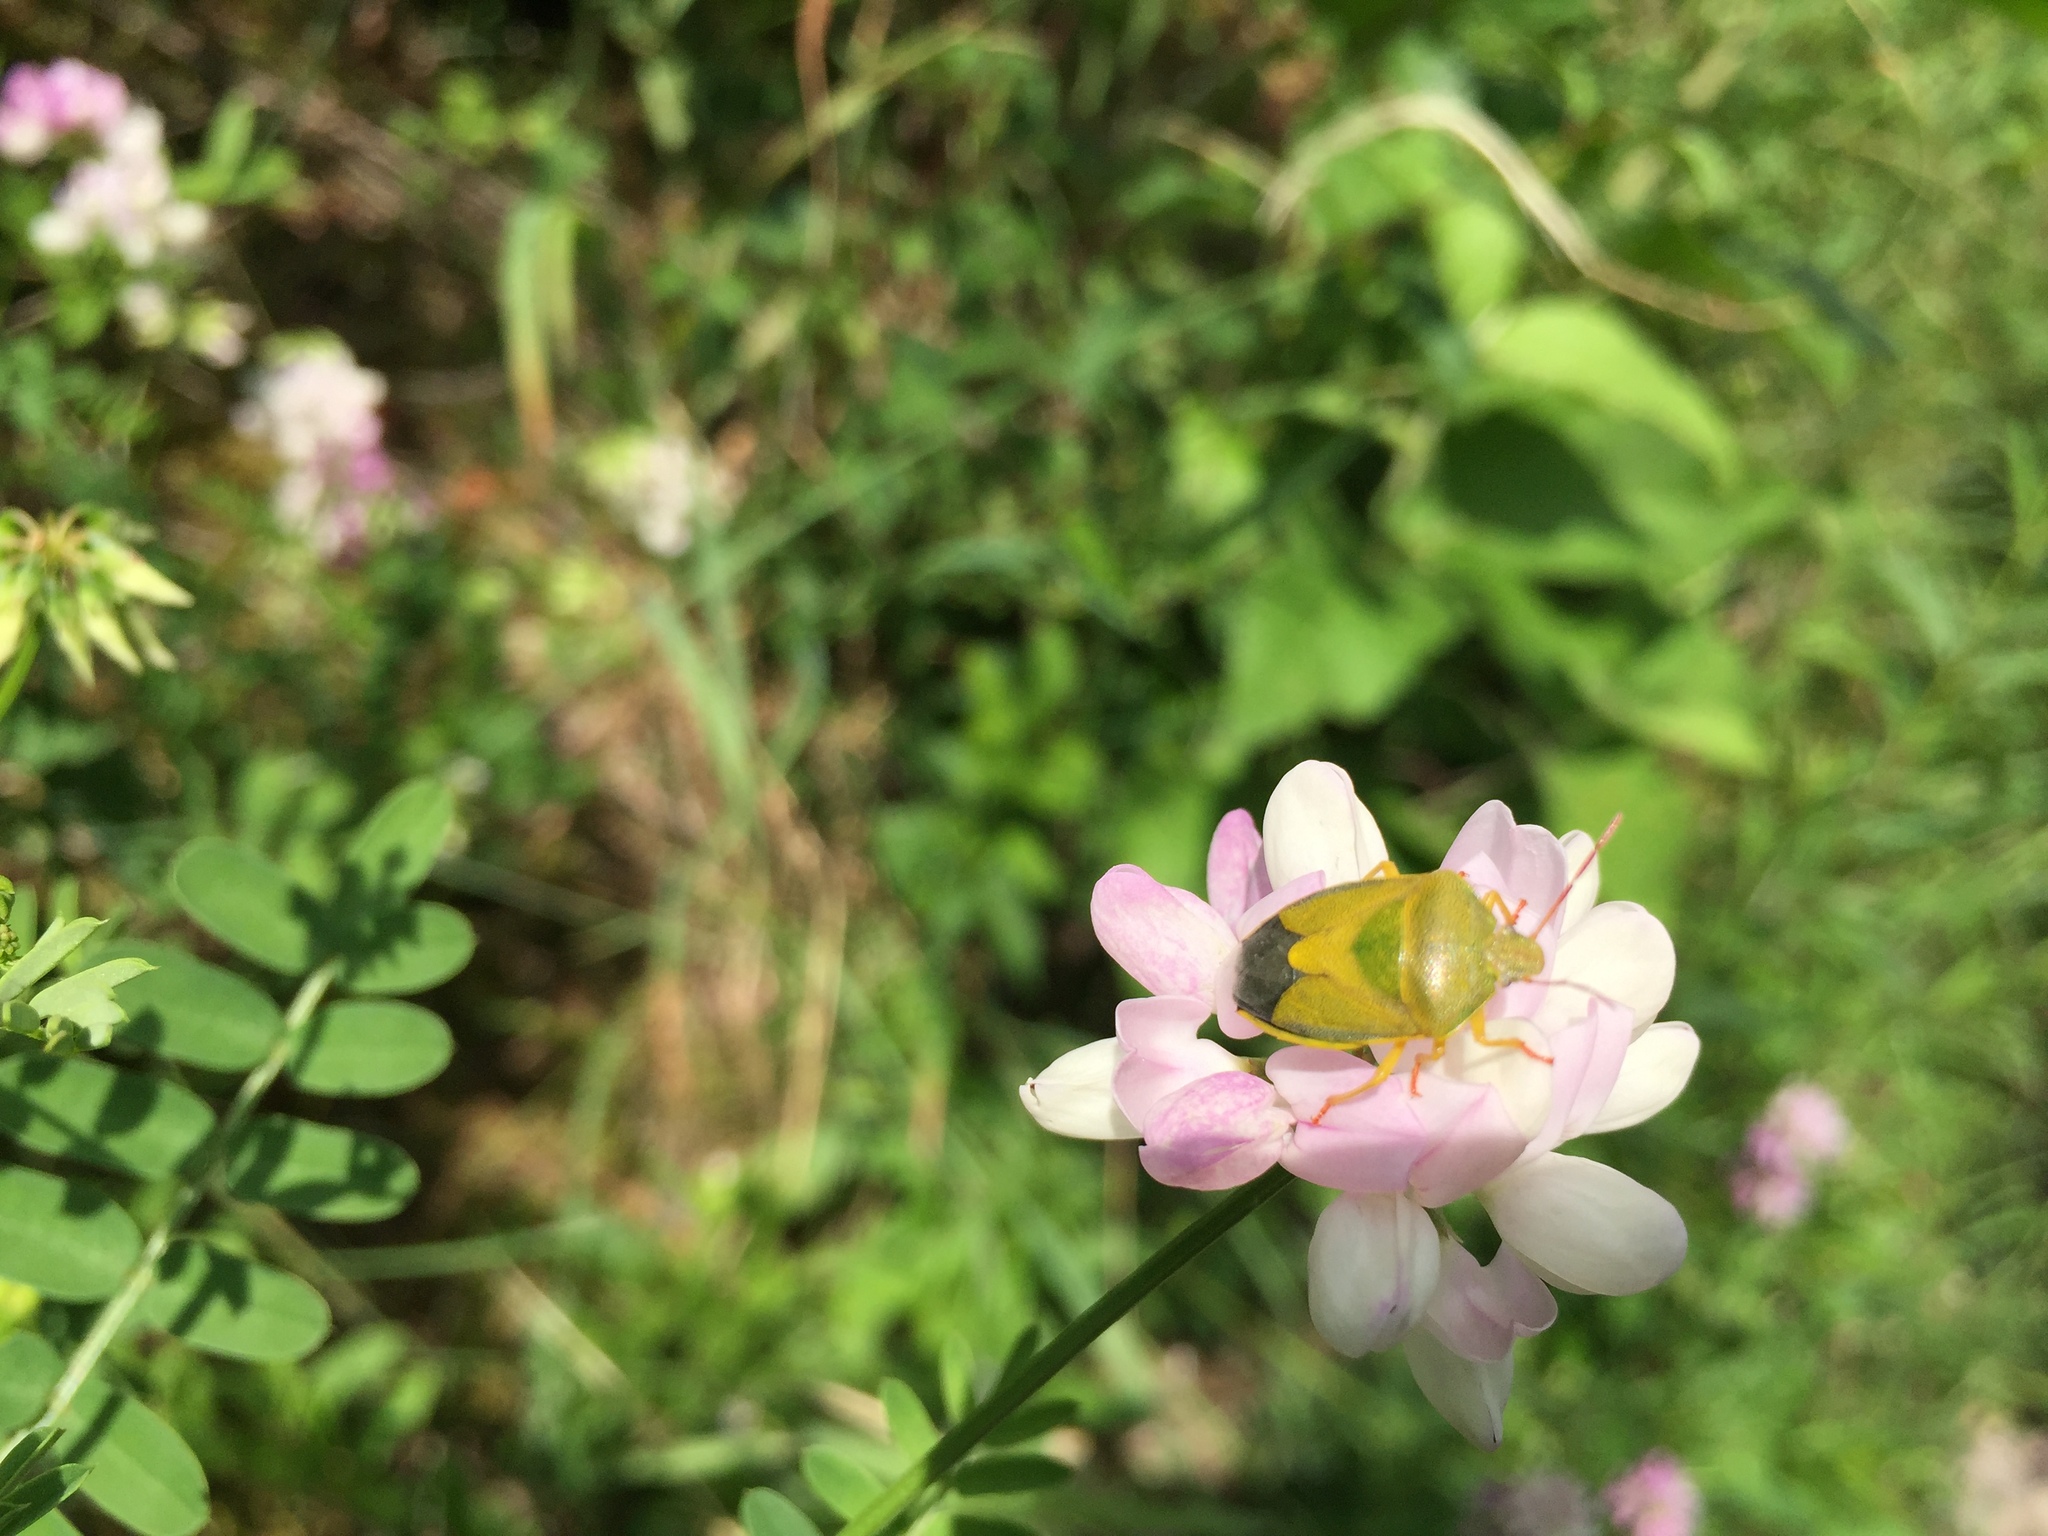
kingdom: Animalia
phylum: Arthropoda
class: Insecta
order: Hemiptera
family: Pentatomidae
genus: Piezodorus
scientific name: Piezodorus lituratus
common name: Stink bug
